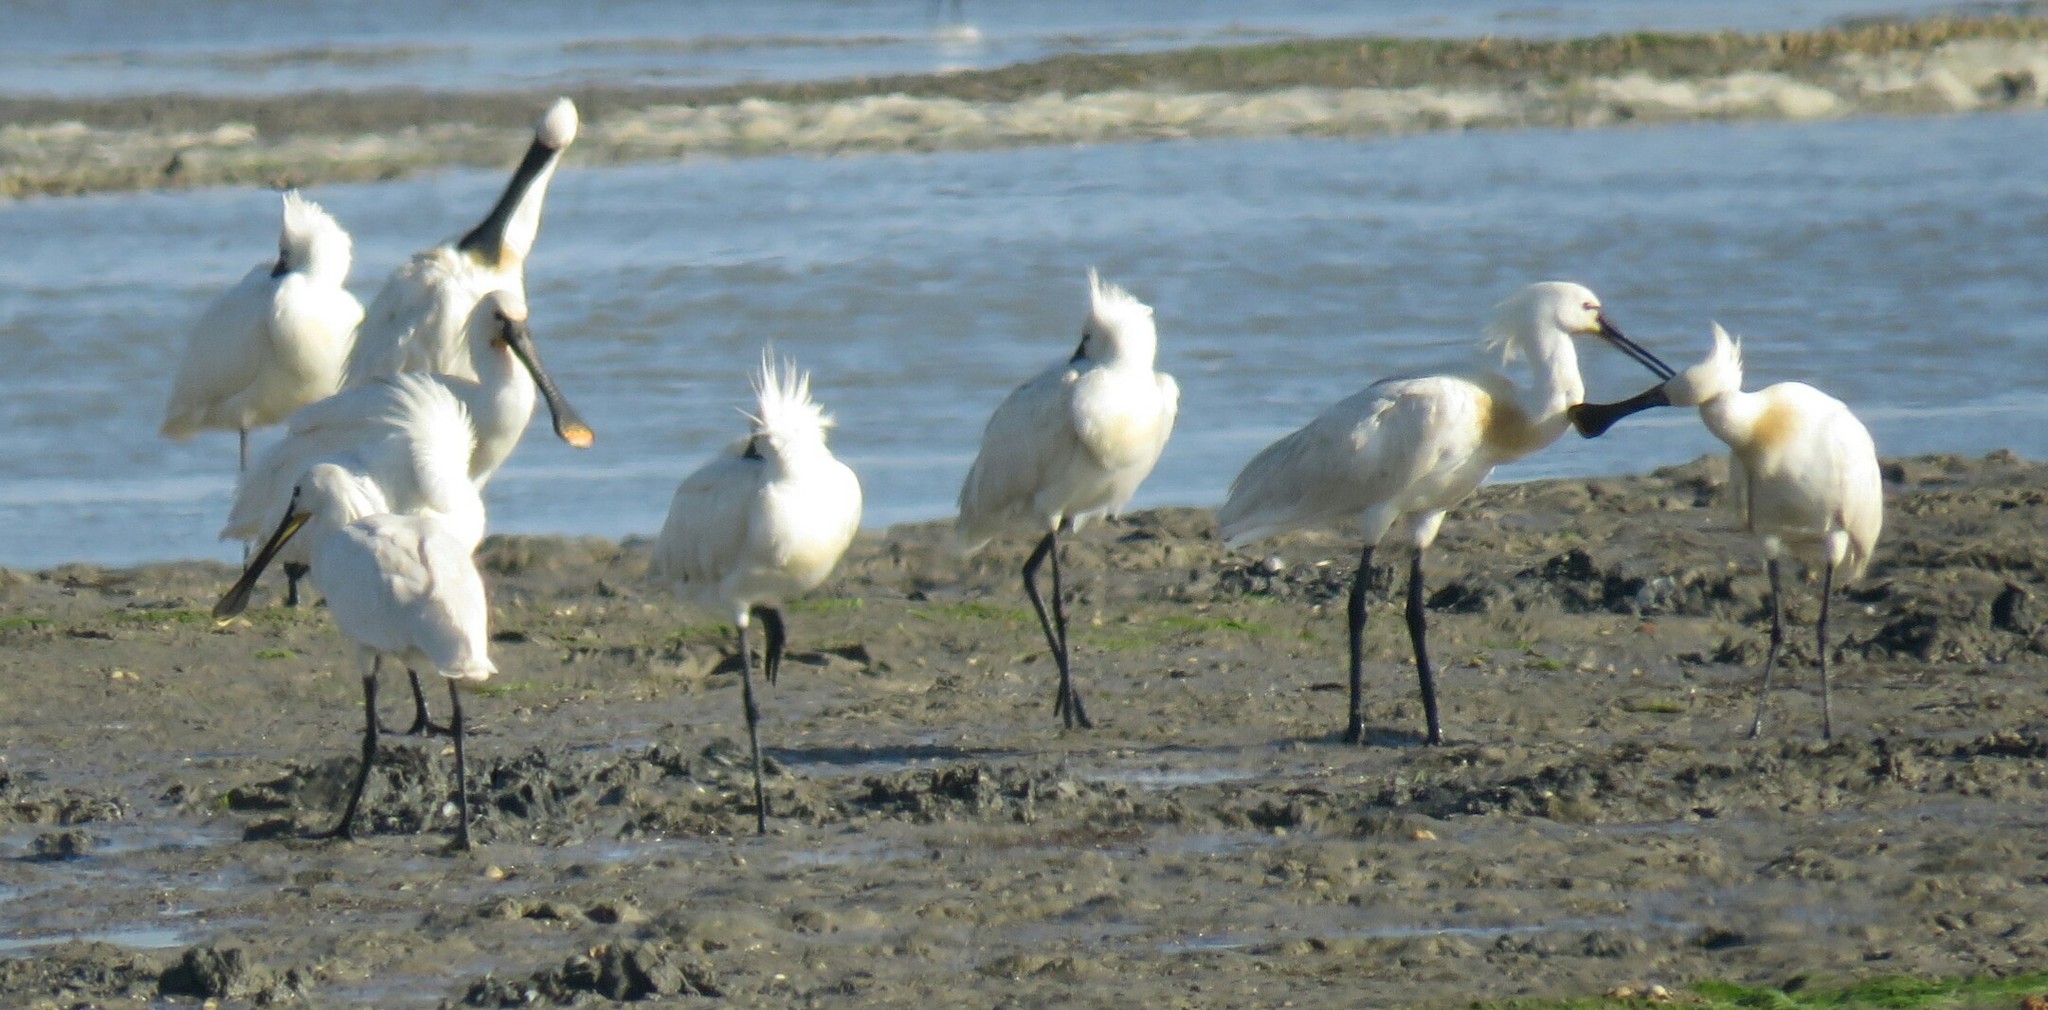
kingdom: Animalia
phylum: Chordata
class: Aves
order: Pelecaniformes
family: Threskiornithidae
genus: Platalea
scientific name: Platalea leucorodia
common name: Eurasian spoonbill
